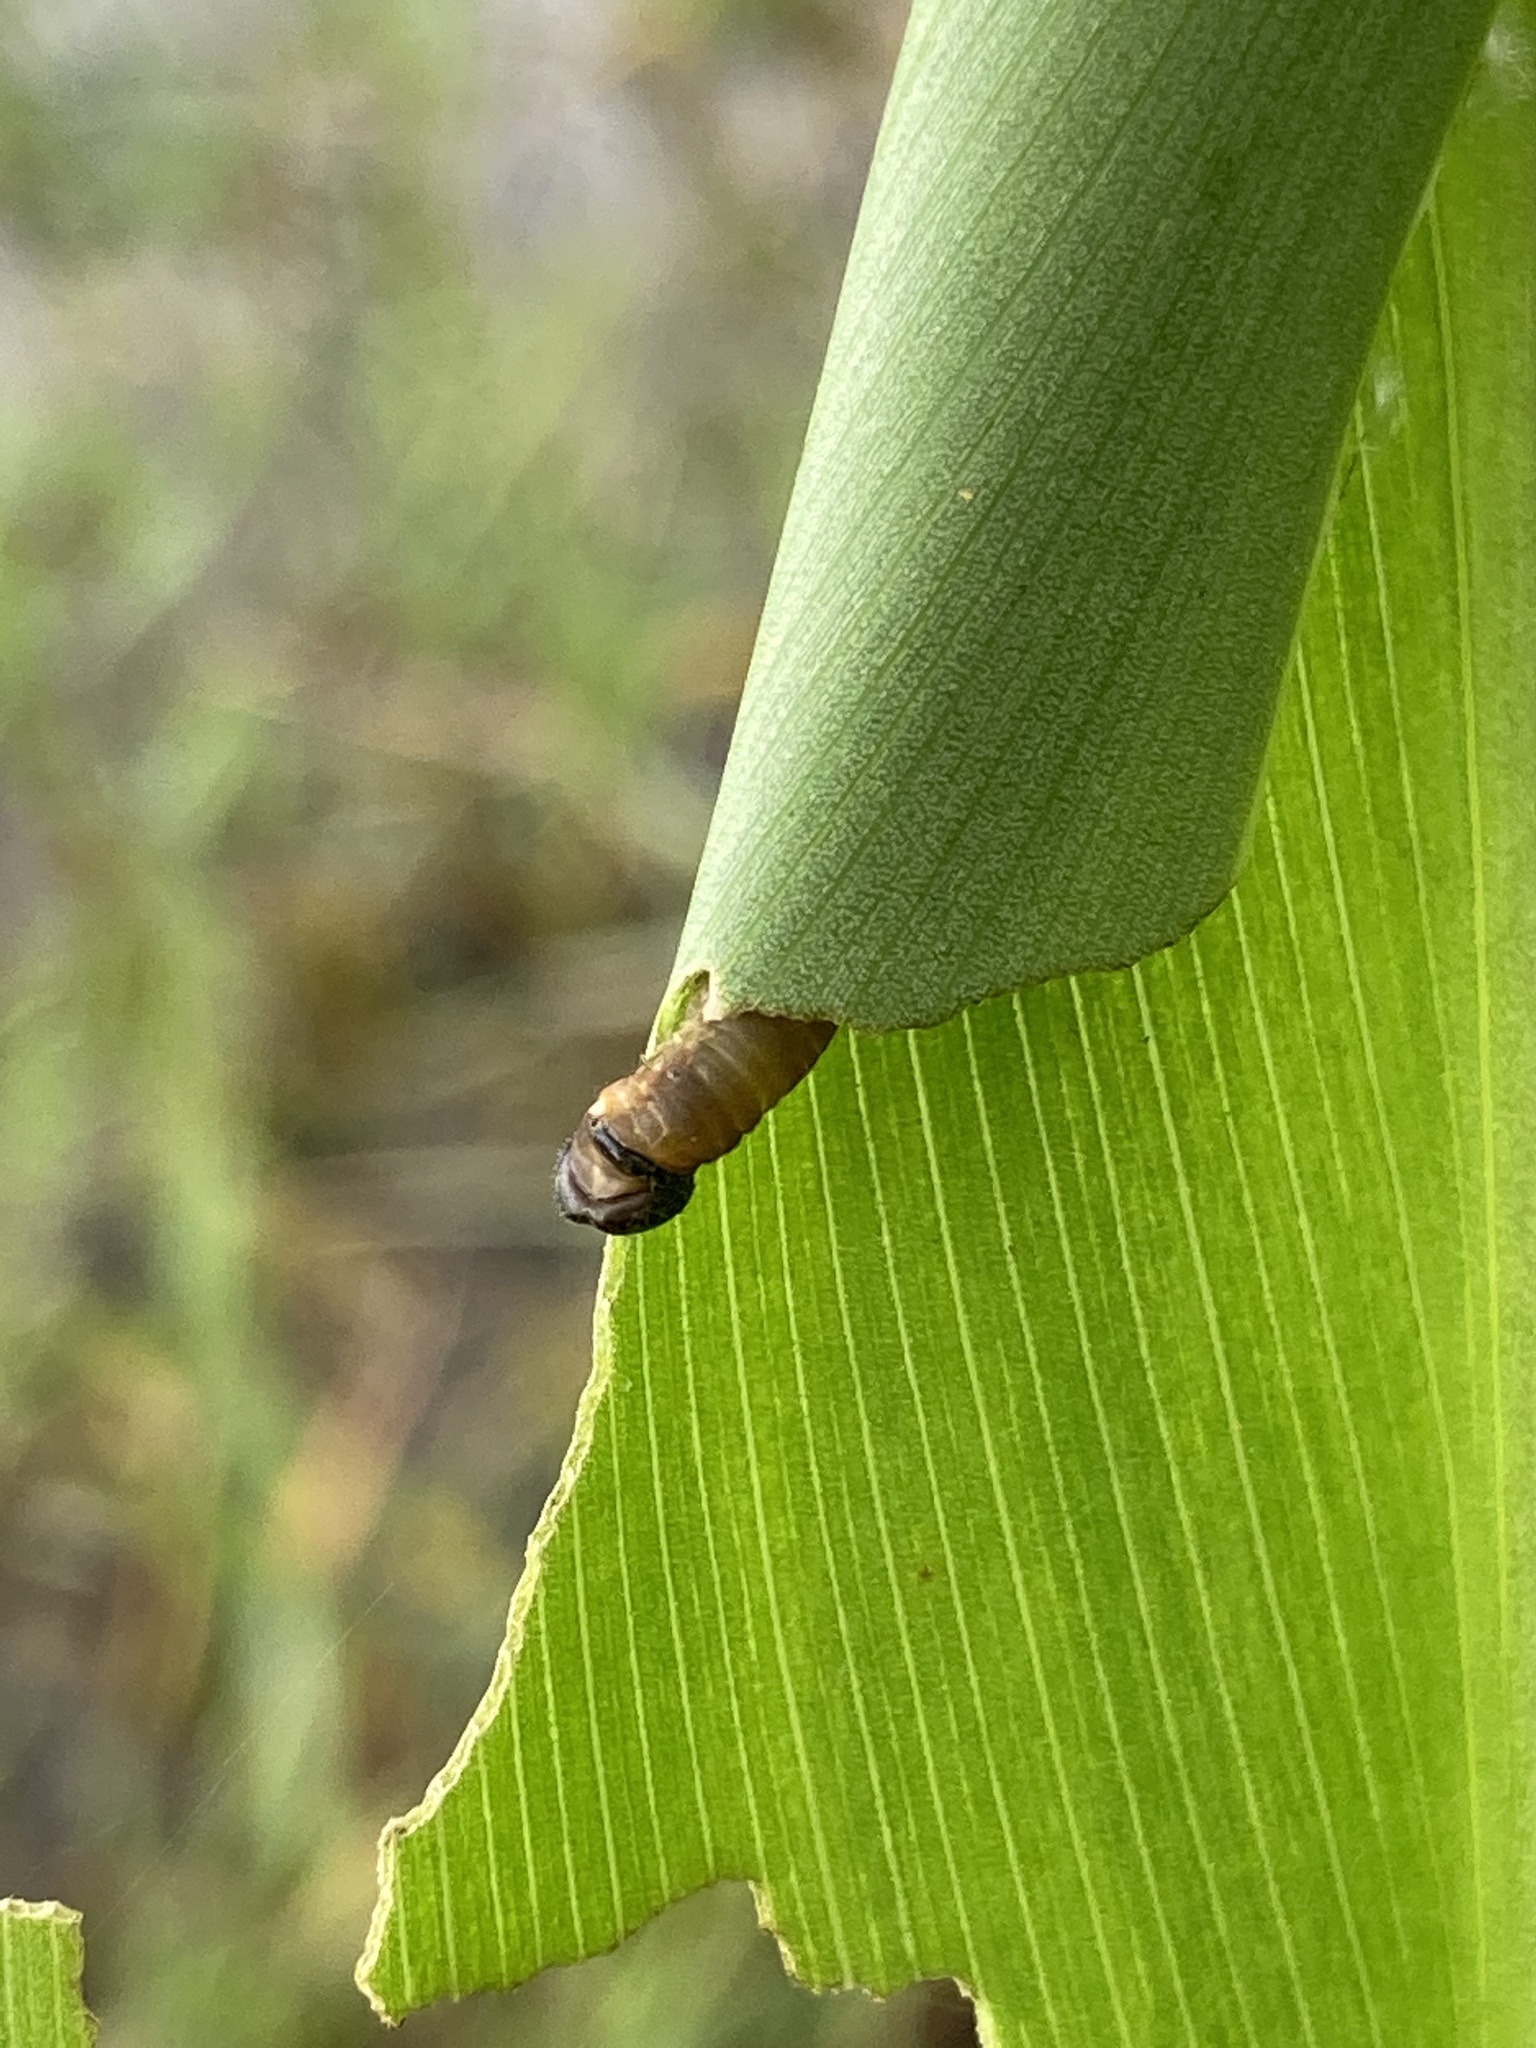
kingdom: Animalia
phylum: Arthropoda
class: Insecta
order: Lepidoptera
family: Hesperiidae
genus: Calpodes
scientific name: Calpodes ethlius
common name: Brazilian skipper
